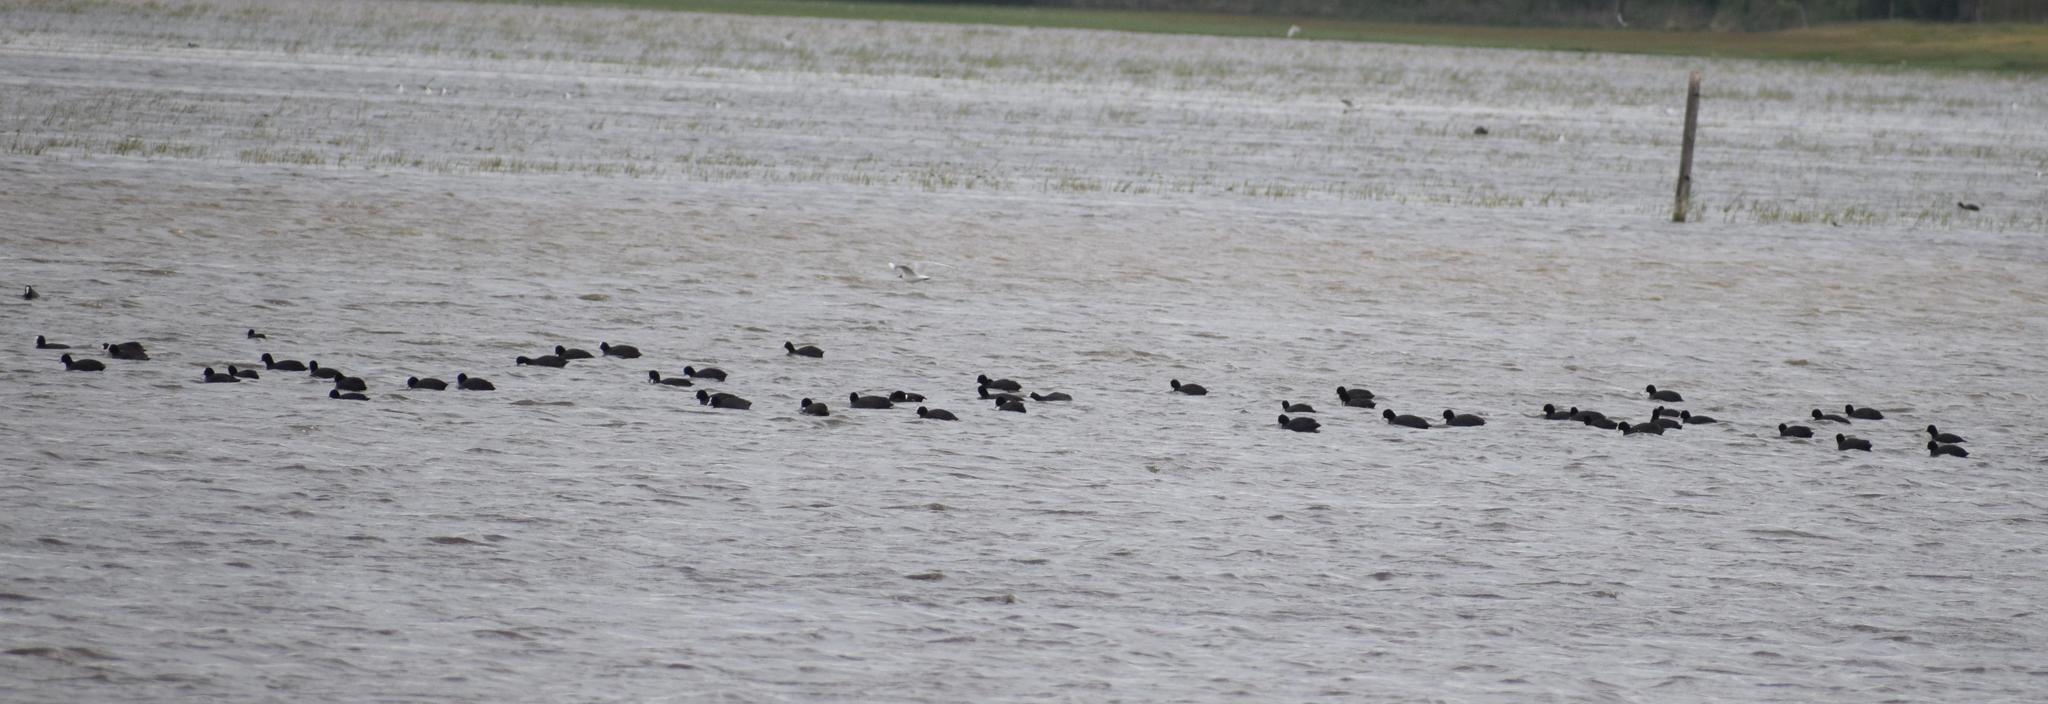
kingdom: Animalia
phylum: Chordata
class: Aves
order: Gruiformes
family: Rallidae
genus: Fulica
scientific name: Fulica atra
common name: Eurasian coot
